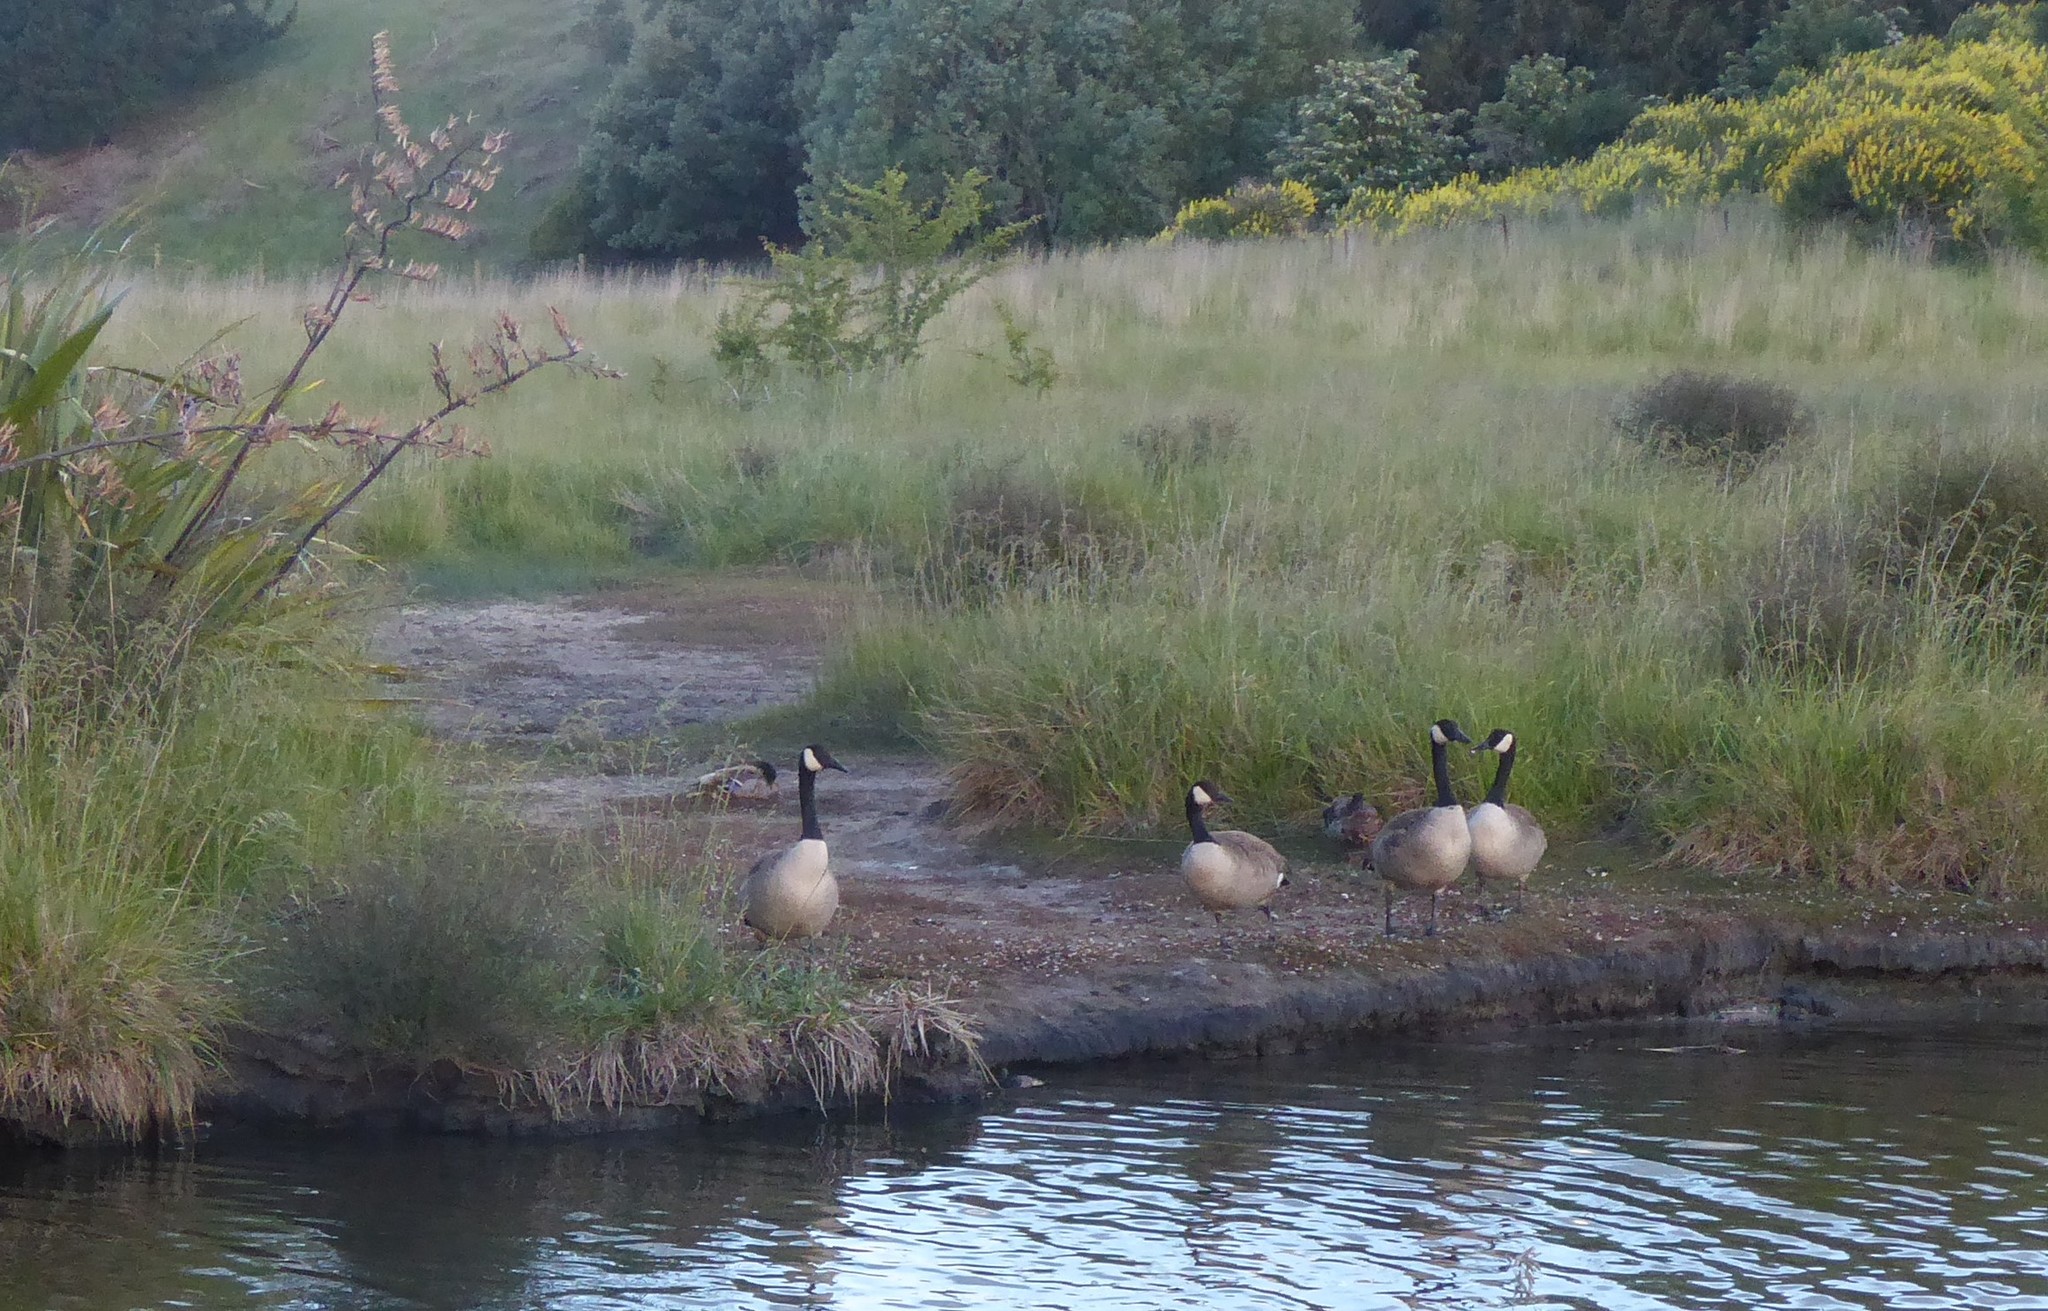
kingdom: Animalia
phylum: Chordata
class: Aves
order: Anseriformes
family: Anatidae
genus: Branta
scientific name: Branta canadensis
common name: Canada goose
